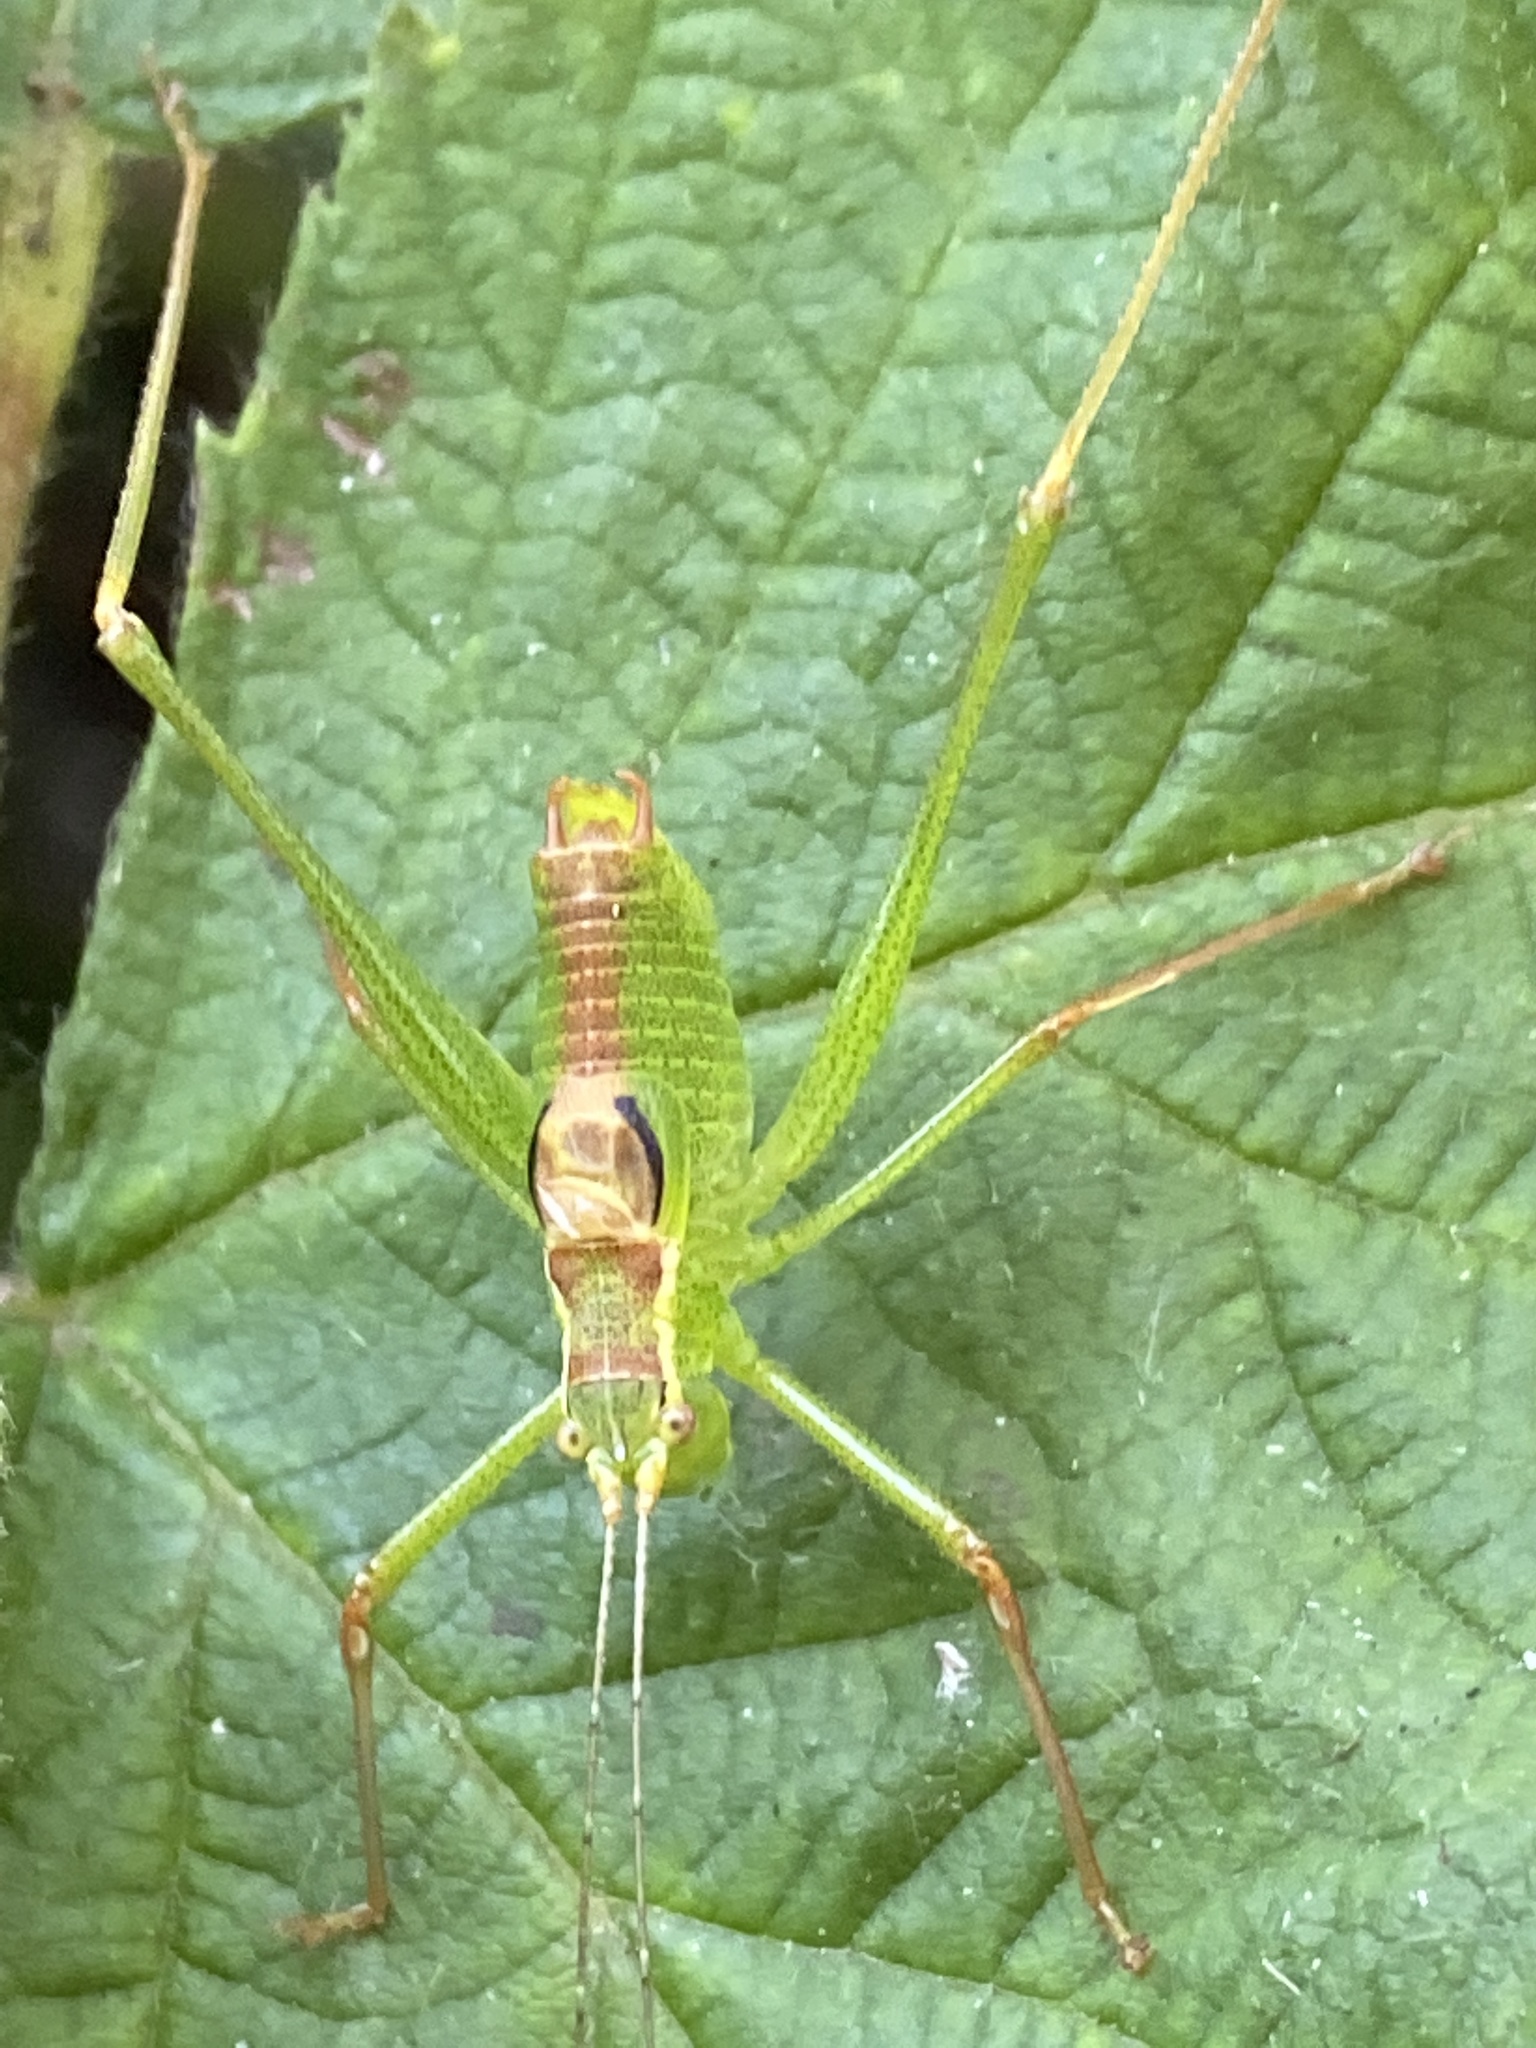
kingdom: Animalia
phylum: Arthropoda
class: Insecta
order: Orthoptera
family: Tettigoniidae
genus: Leptophyes
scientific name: Leptophyes punctatissima
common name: Speckled bush-cricket
